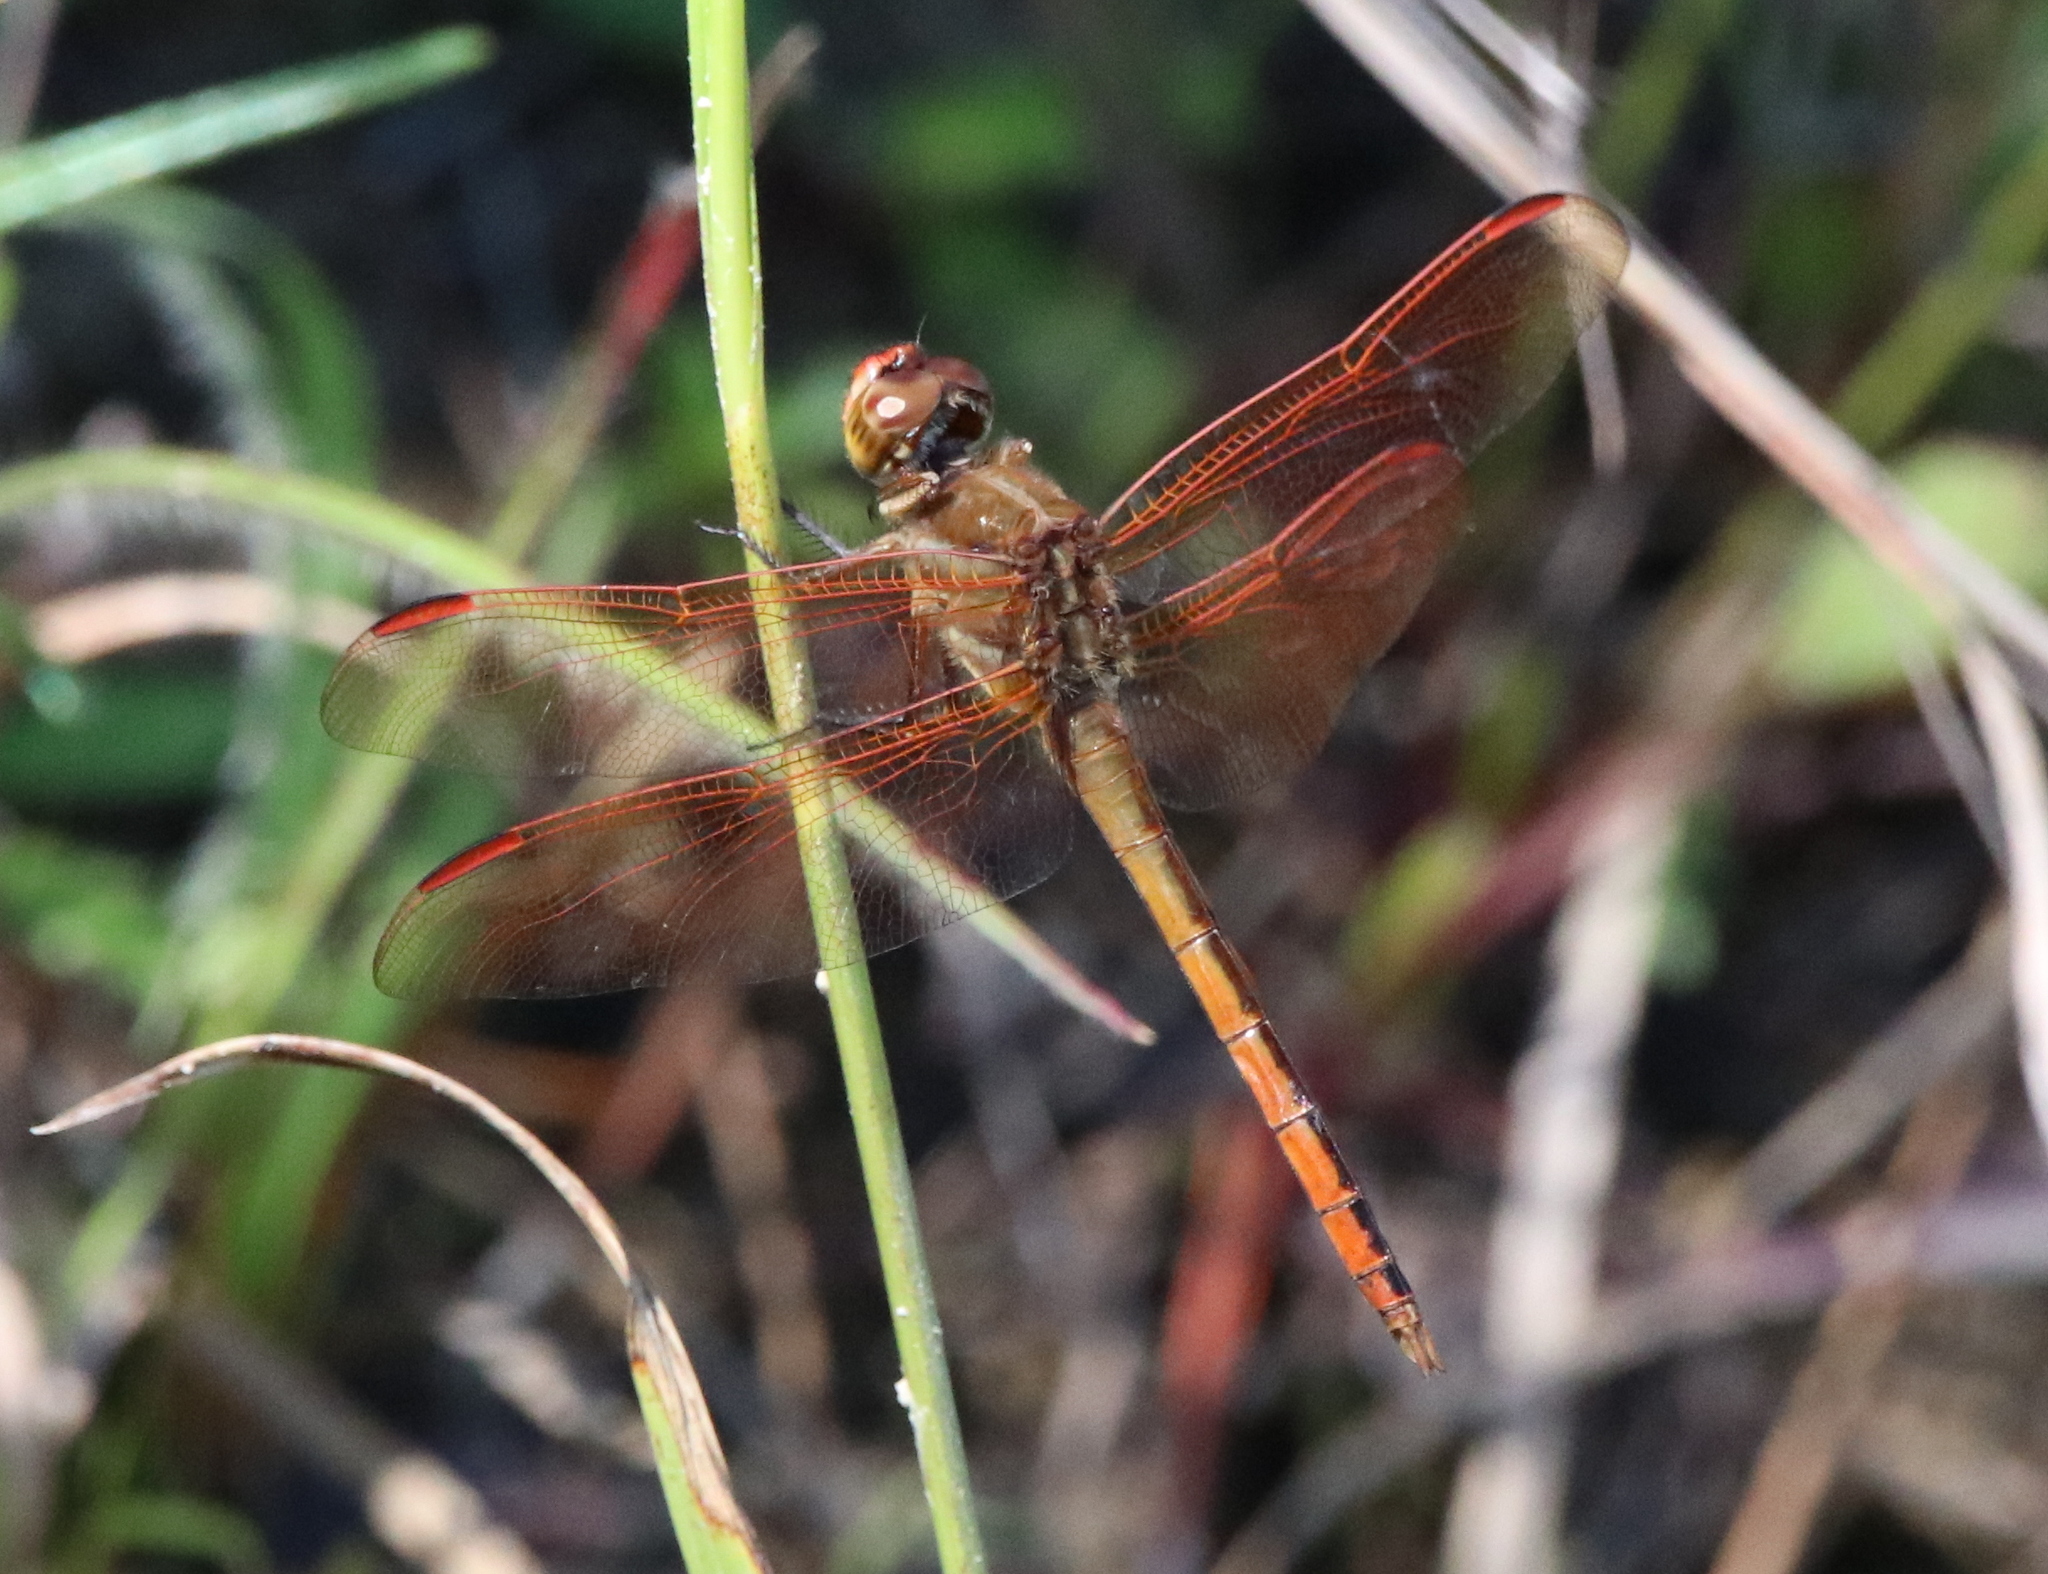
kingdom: Animalia
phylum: Arthropoda
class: Insecta
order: Odonata
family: Libellulidae
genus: Libellula
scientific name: Libellula auripennis
